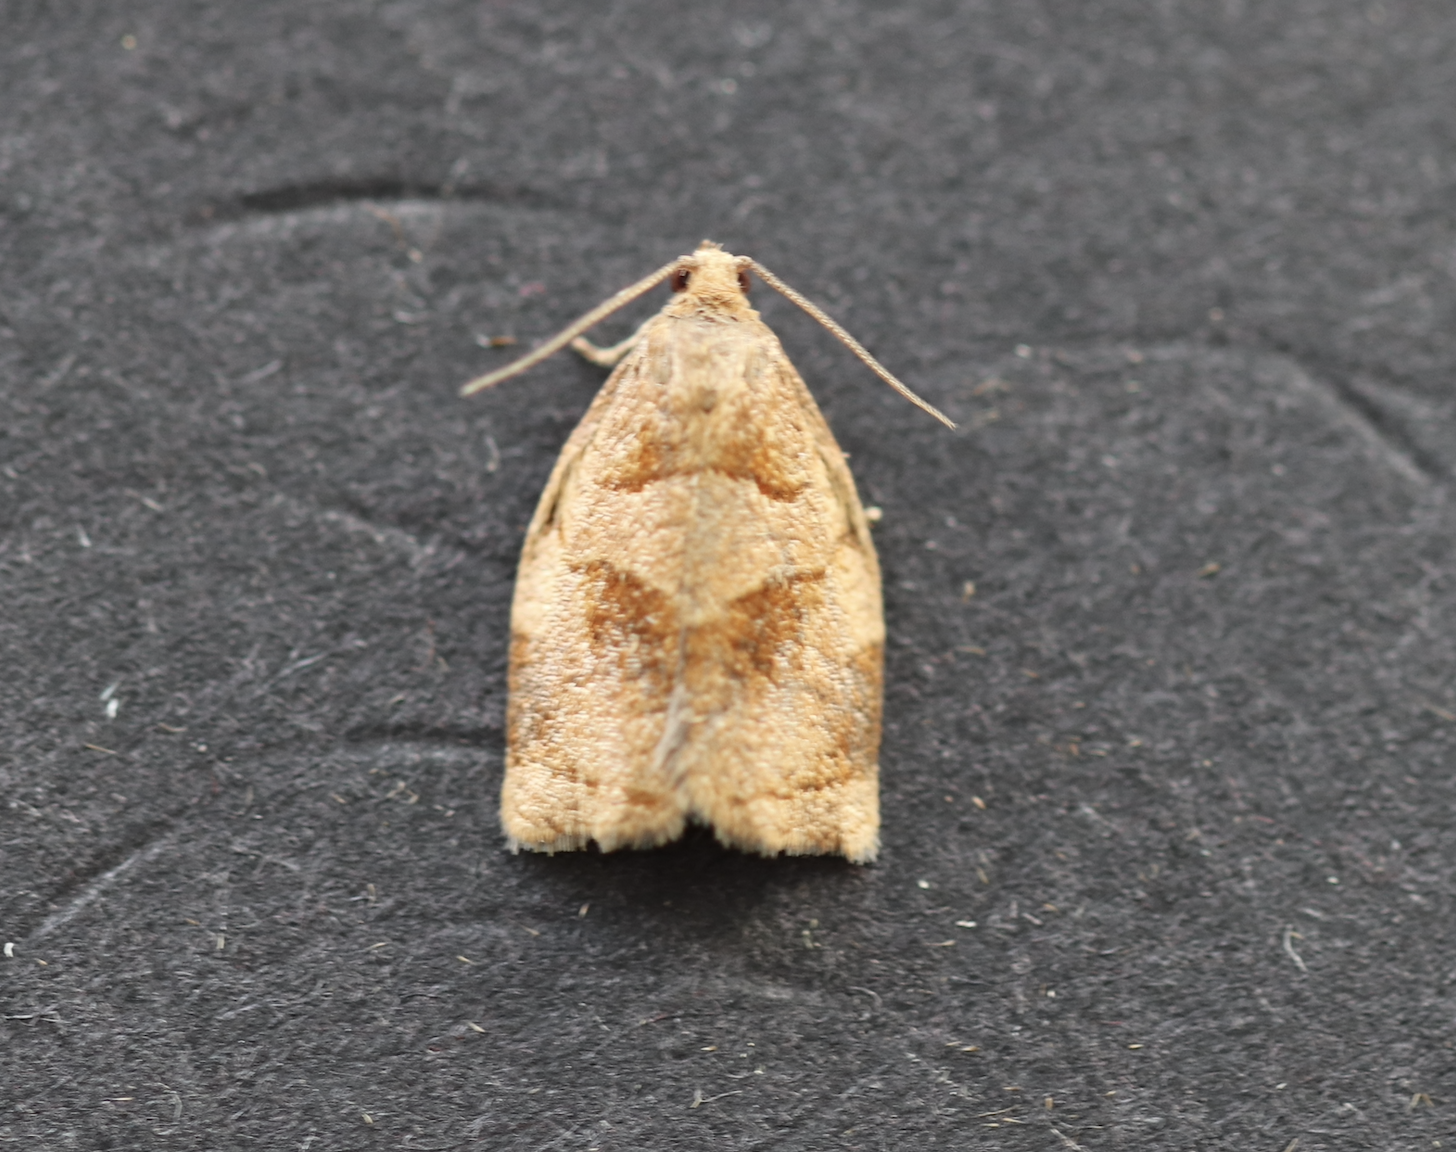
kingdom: Animalia
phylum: Arthropoda
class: Insecta
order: Lepidoptera
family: Tortricidae
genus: Archips
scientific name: Archips rosana
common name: Rose tortrix
